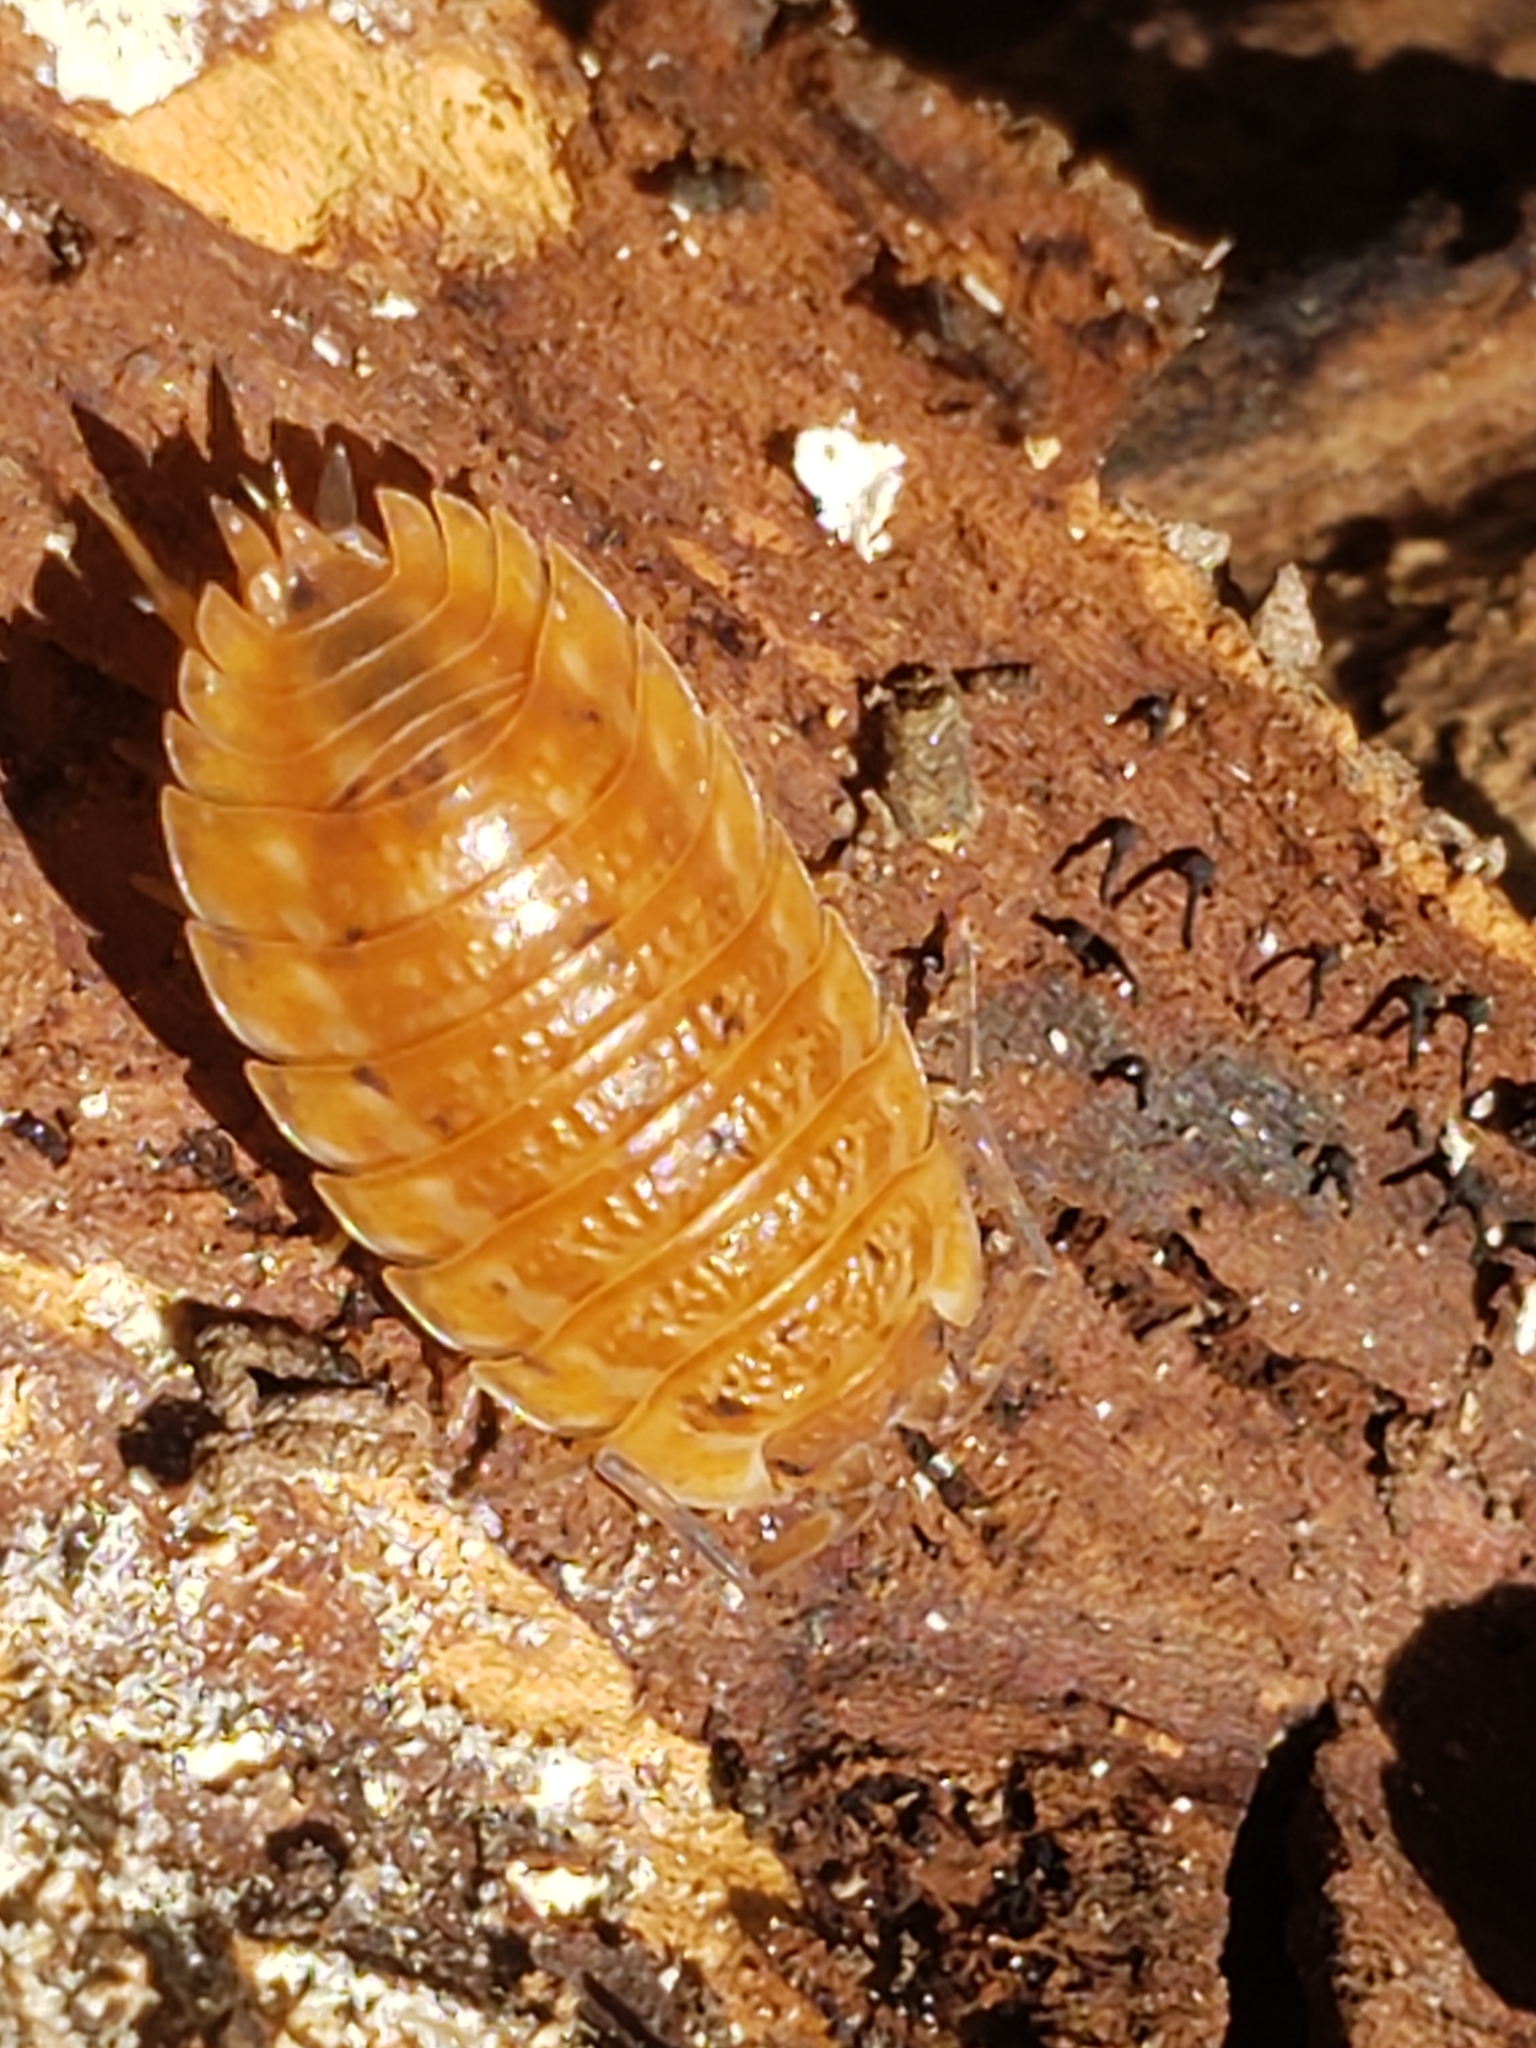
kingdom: Animalia
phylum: Arthropoda
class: Malacostraca
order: Isopoda
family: Trachelipodidae
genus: Trachelipus
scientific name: Trachelipus rathkii
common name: Isopod
